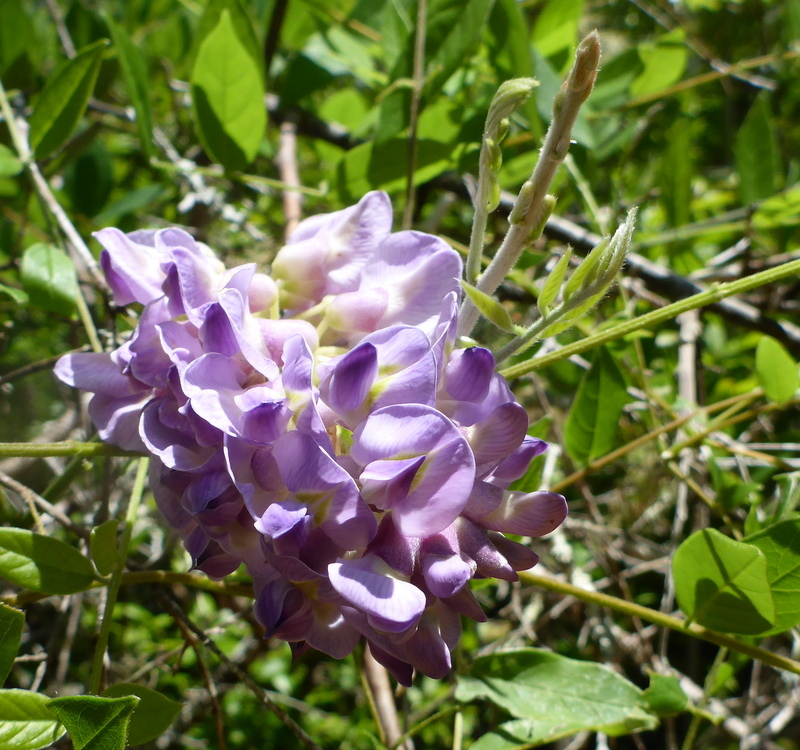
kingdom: Plantae
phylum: Tracheophyta
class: Magnoliopsida
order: Fabales
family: Fabaceae
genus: Wisteria
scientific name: Wisteria frutescens
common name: American wisteria
